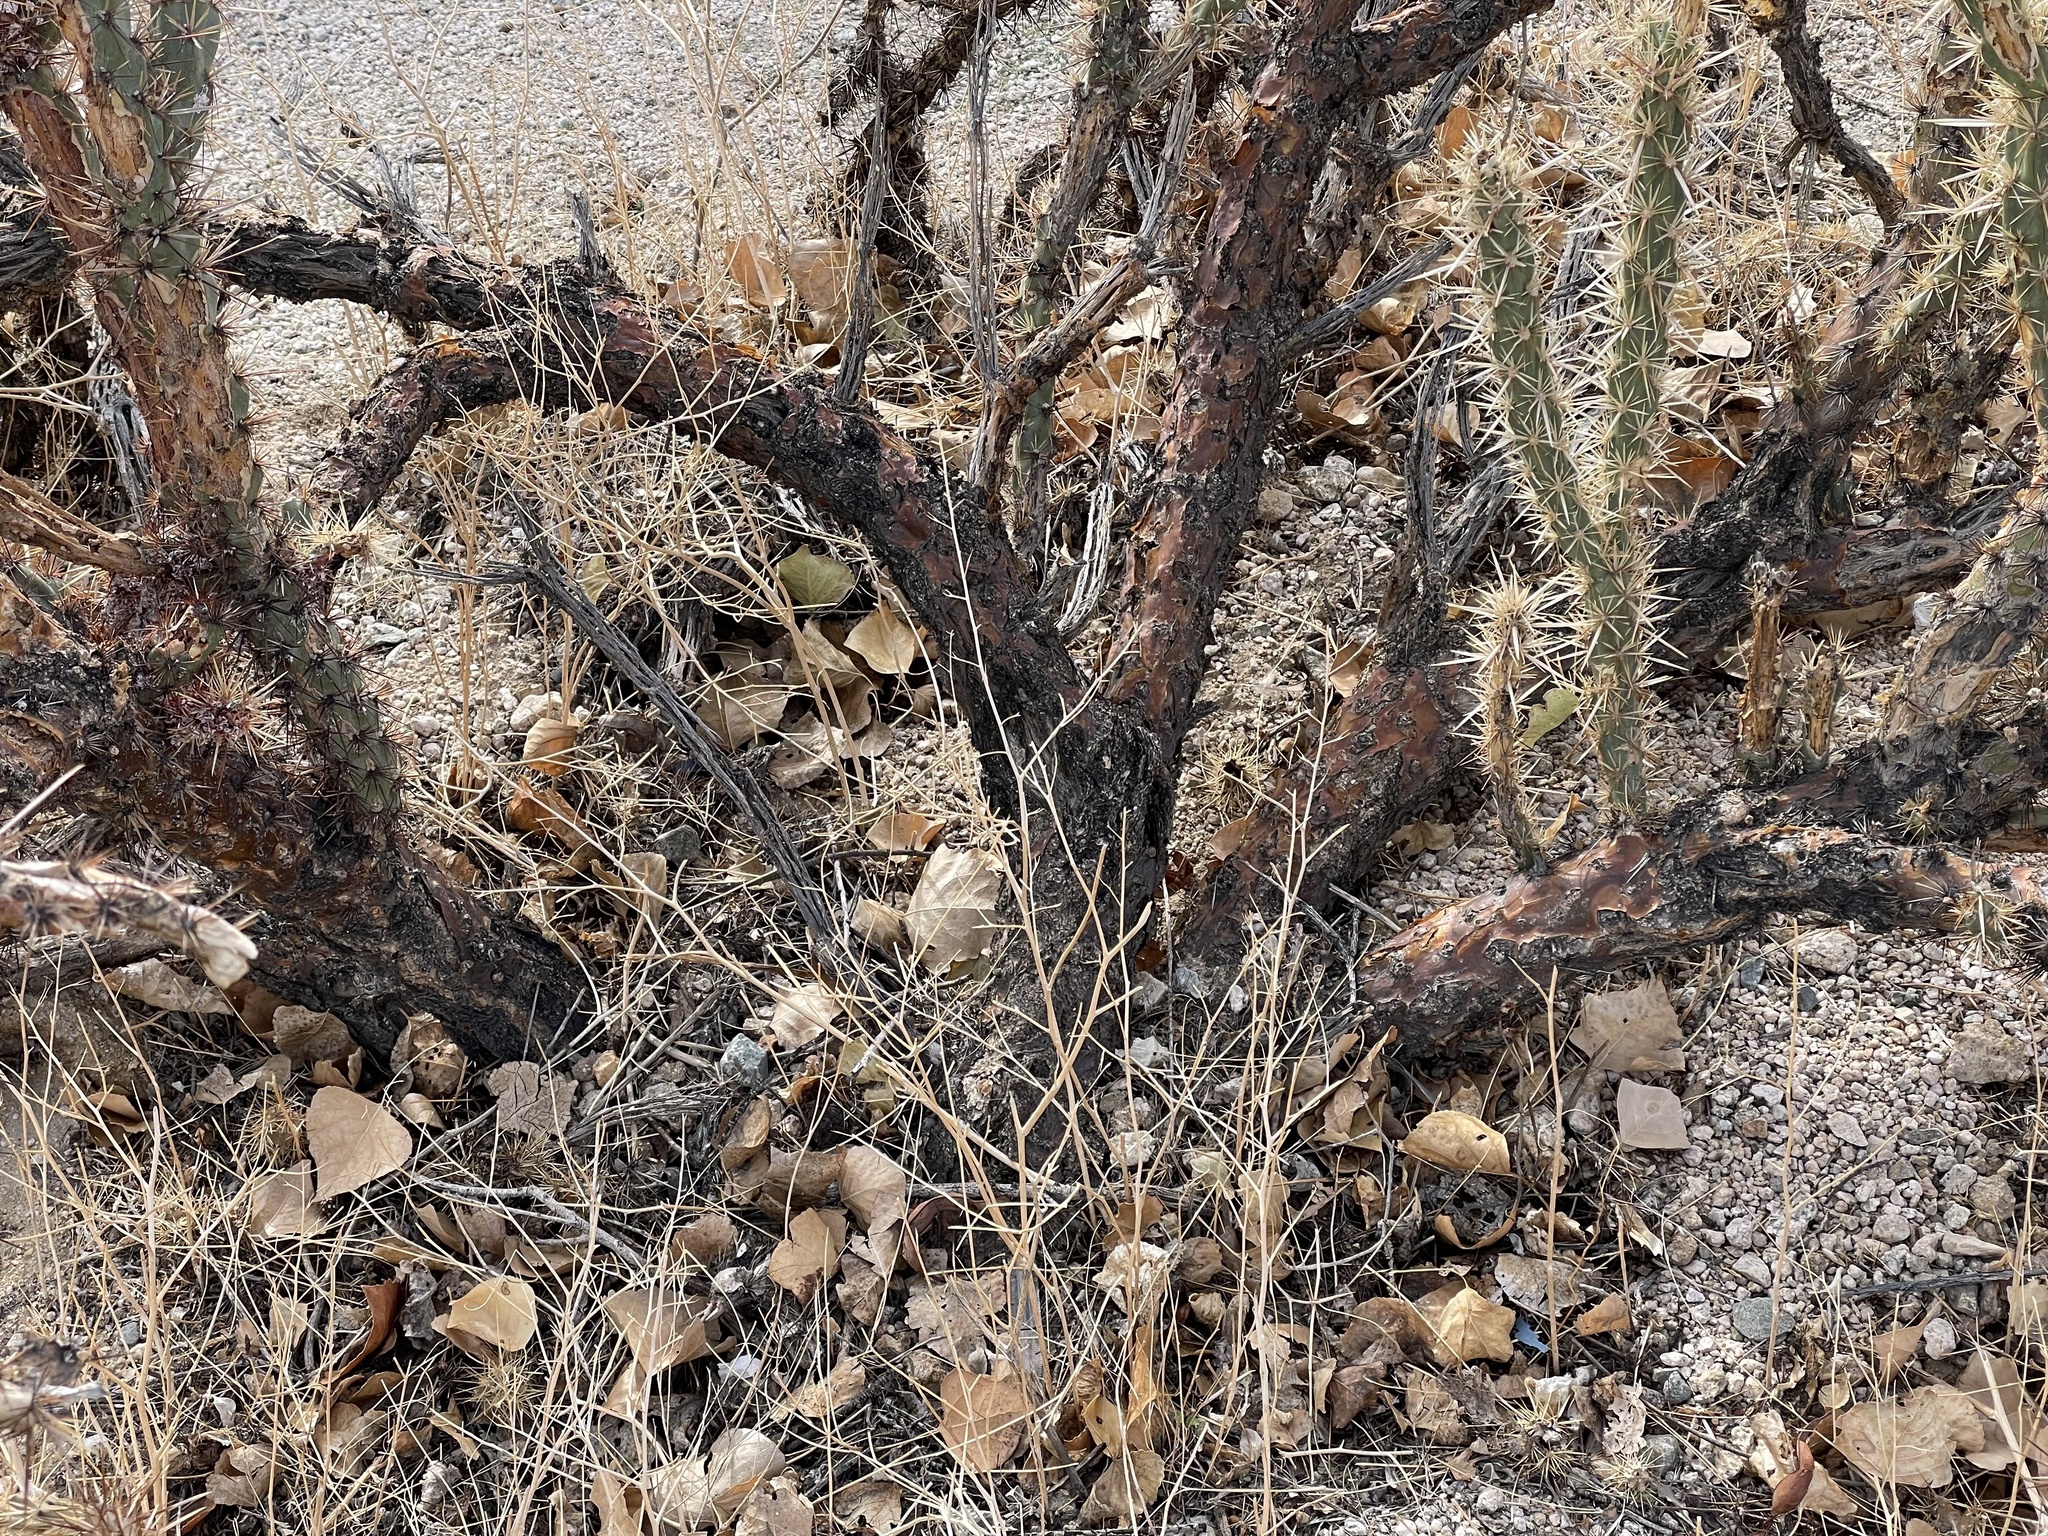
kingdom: Plantae
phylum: Tracheophyta
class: Magnoliopsida
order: Caryophyllales
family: Cactaceae
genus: Cylindropuntia
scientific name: Cylindropuntia acanthocarpa
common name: Buckhorn cholla
